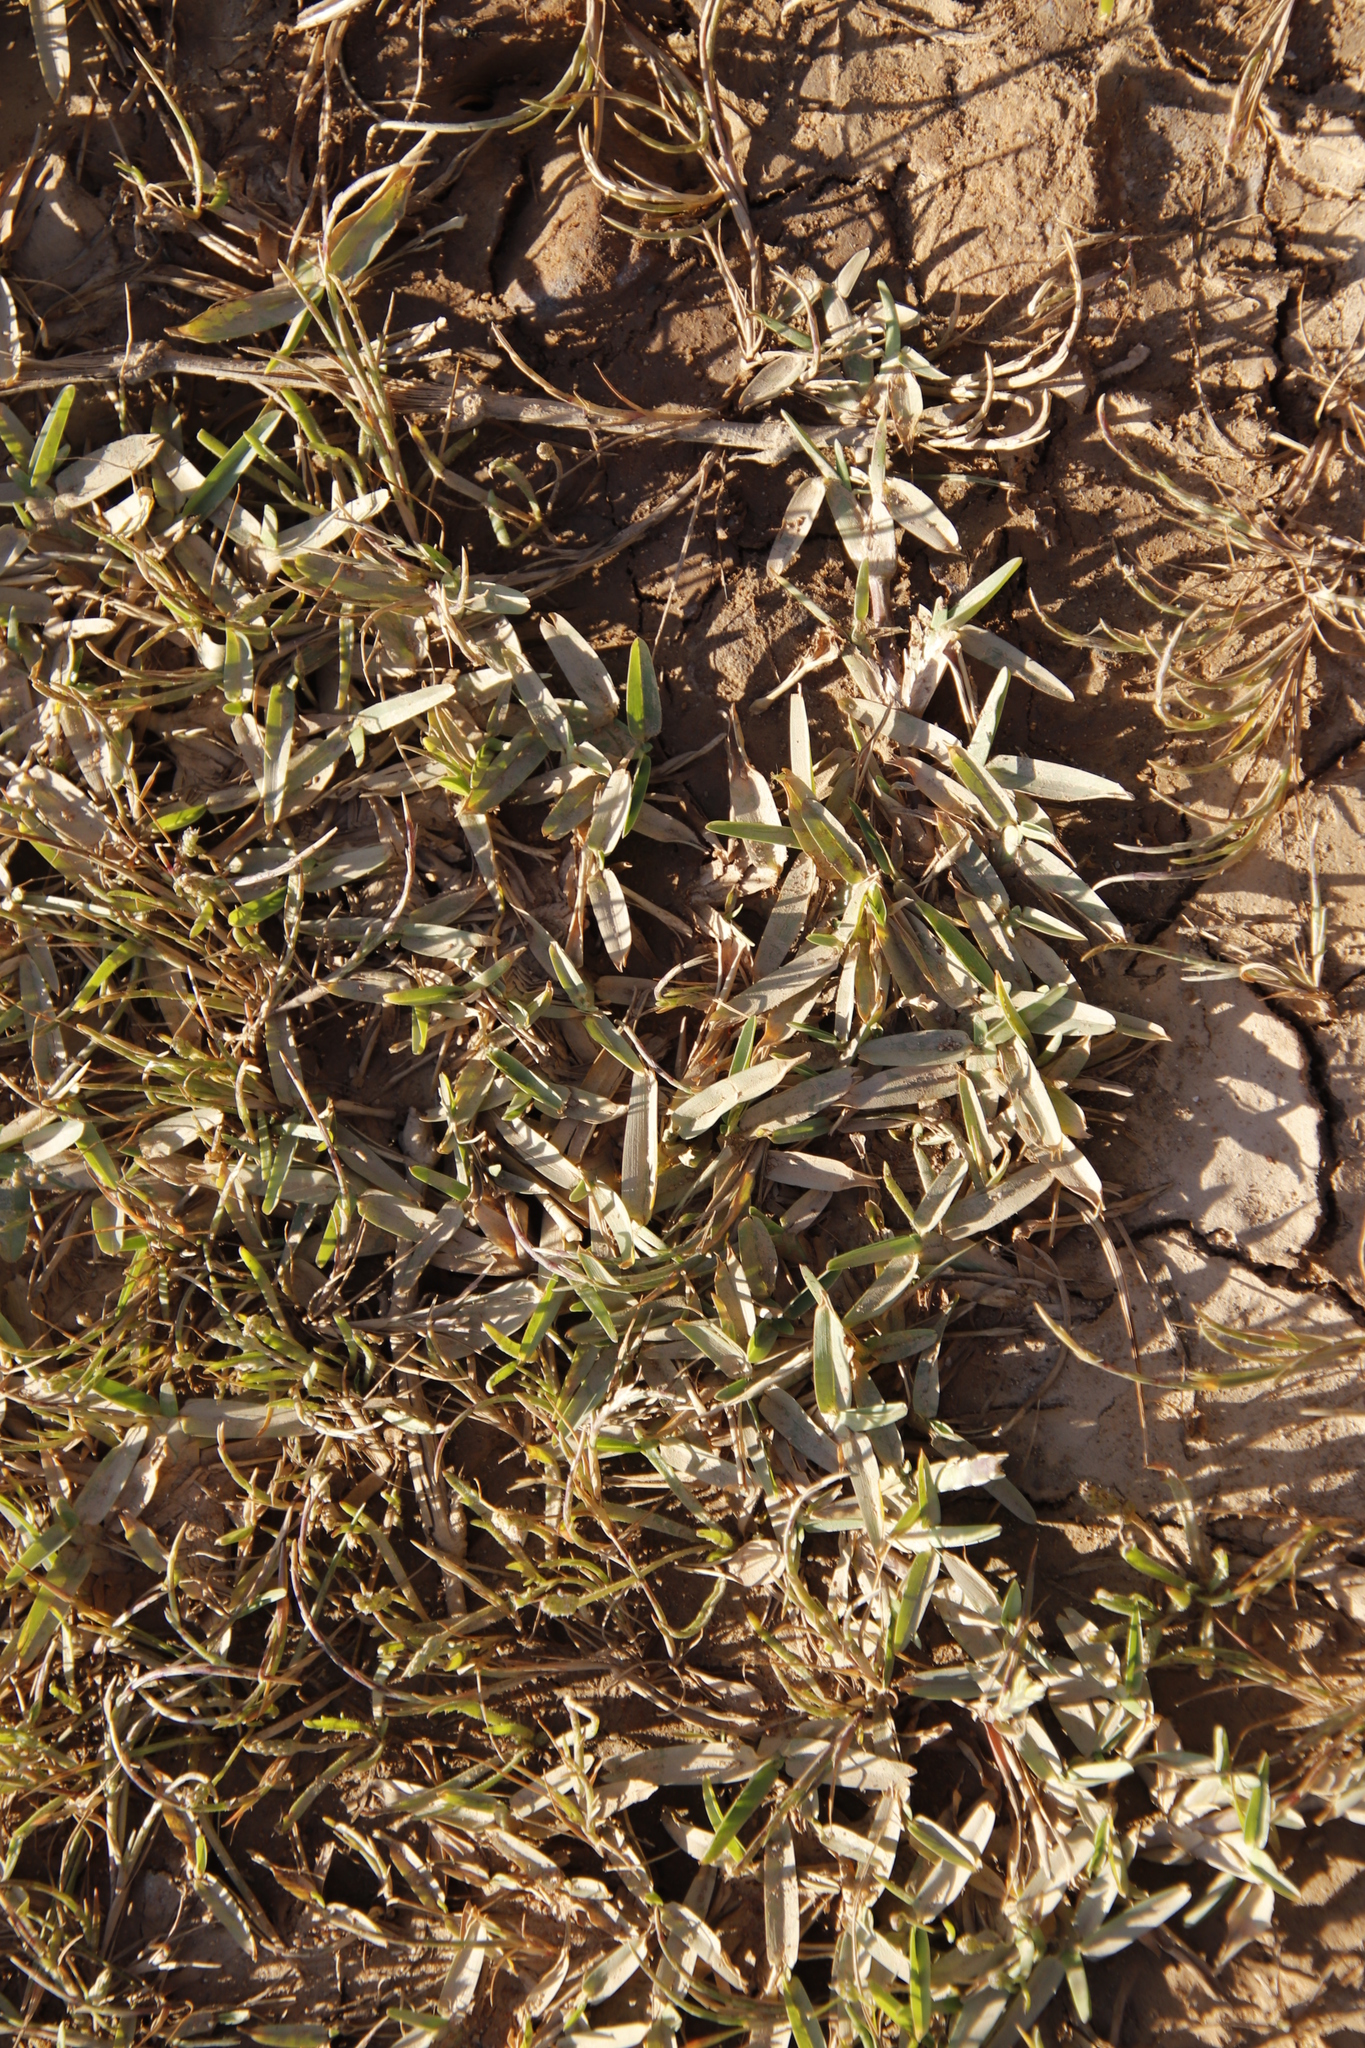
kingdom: Plantae
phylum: Tracheophyta
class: Liliopsida
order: Poales
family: Poaceae
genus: Stenotaphrum
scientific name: Stenotaphrum secundatum
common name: St. augustine grass
